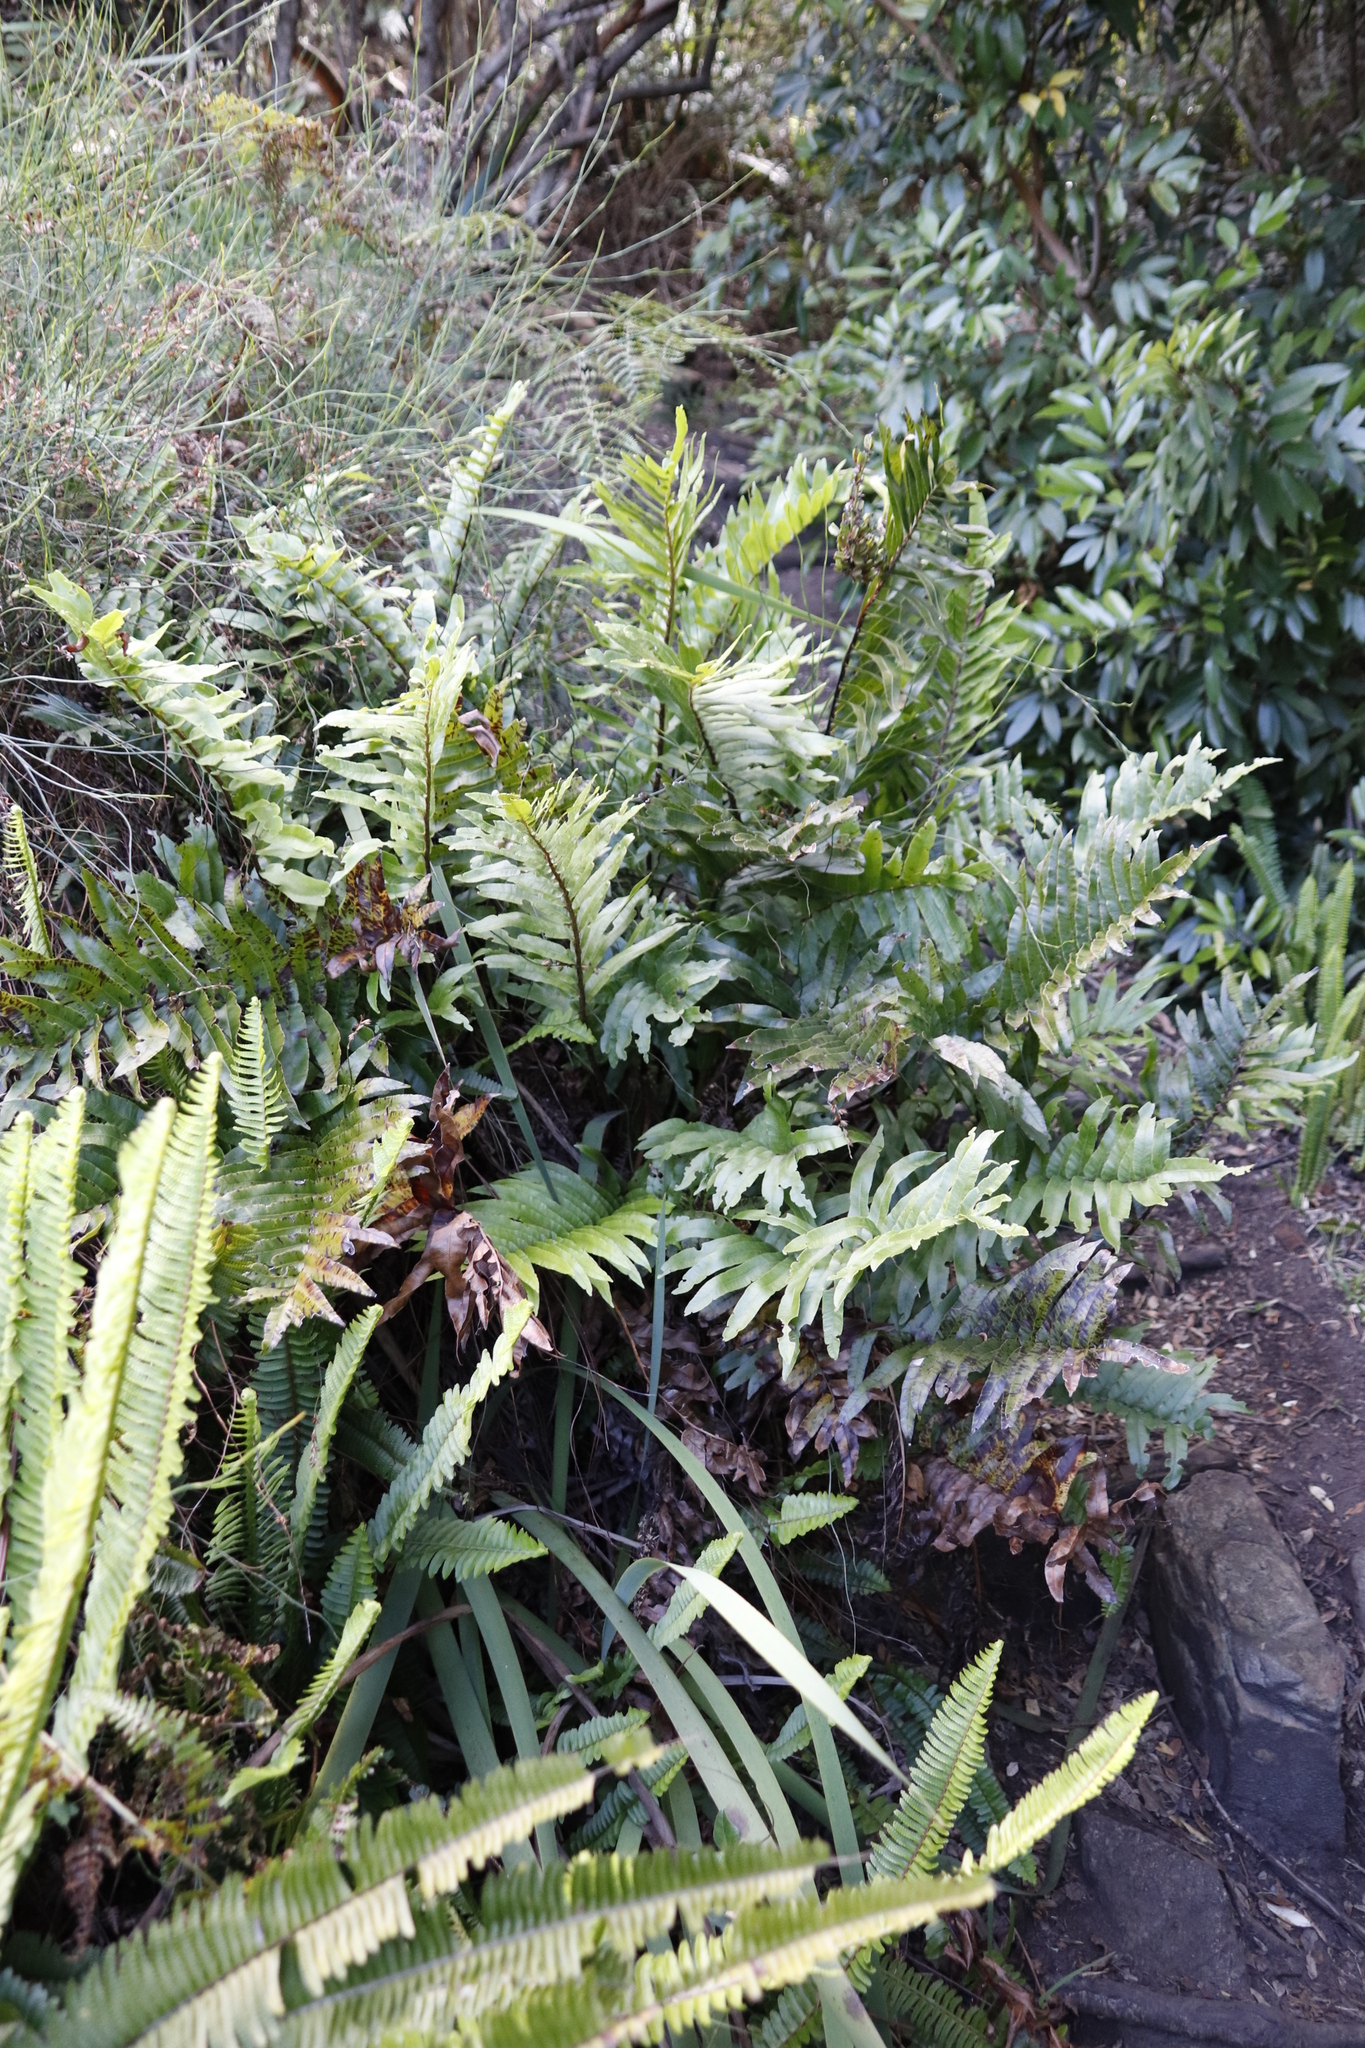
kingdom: Plantae
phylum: Tracheophyta
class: Polypodiopsida
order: Polypodiales
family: Blechnaceae
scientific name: Blechnaceae
